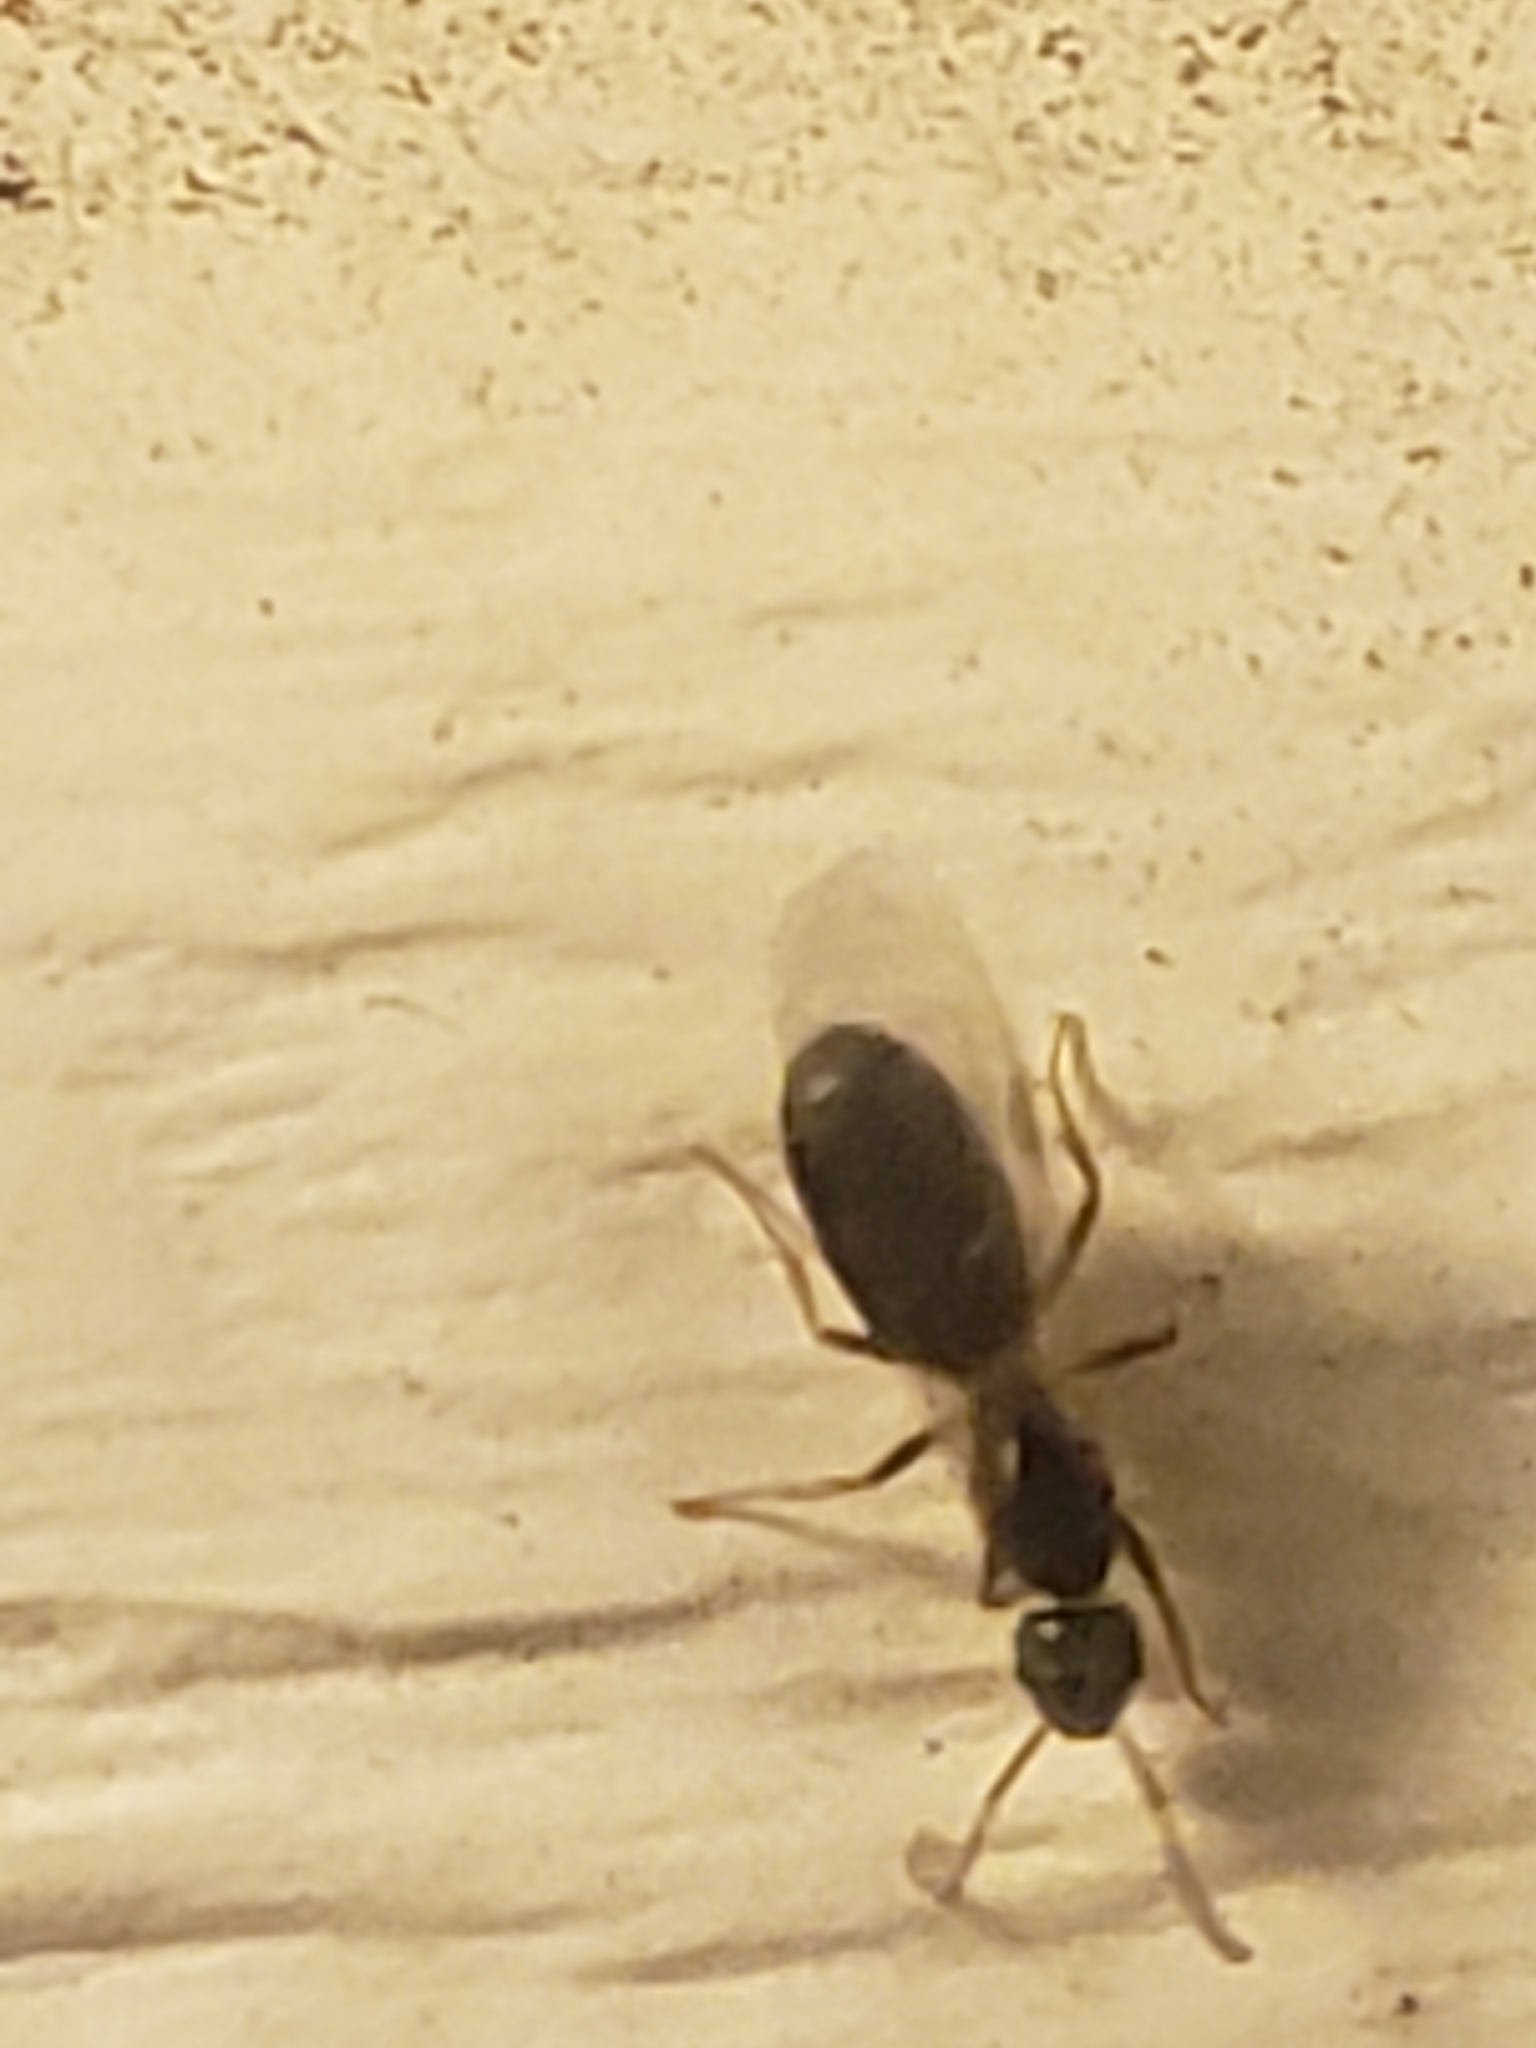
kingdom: Animalia
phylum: Arthropoda
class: Insecta
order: Hymenoptera
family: Formicidae
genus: Tapinoma
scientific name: Tapinoma sessile
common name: Odorous house ant
